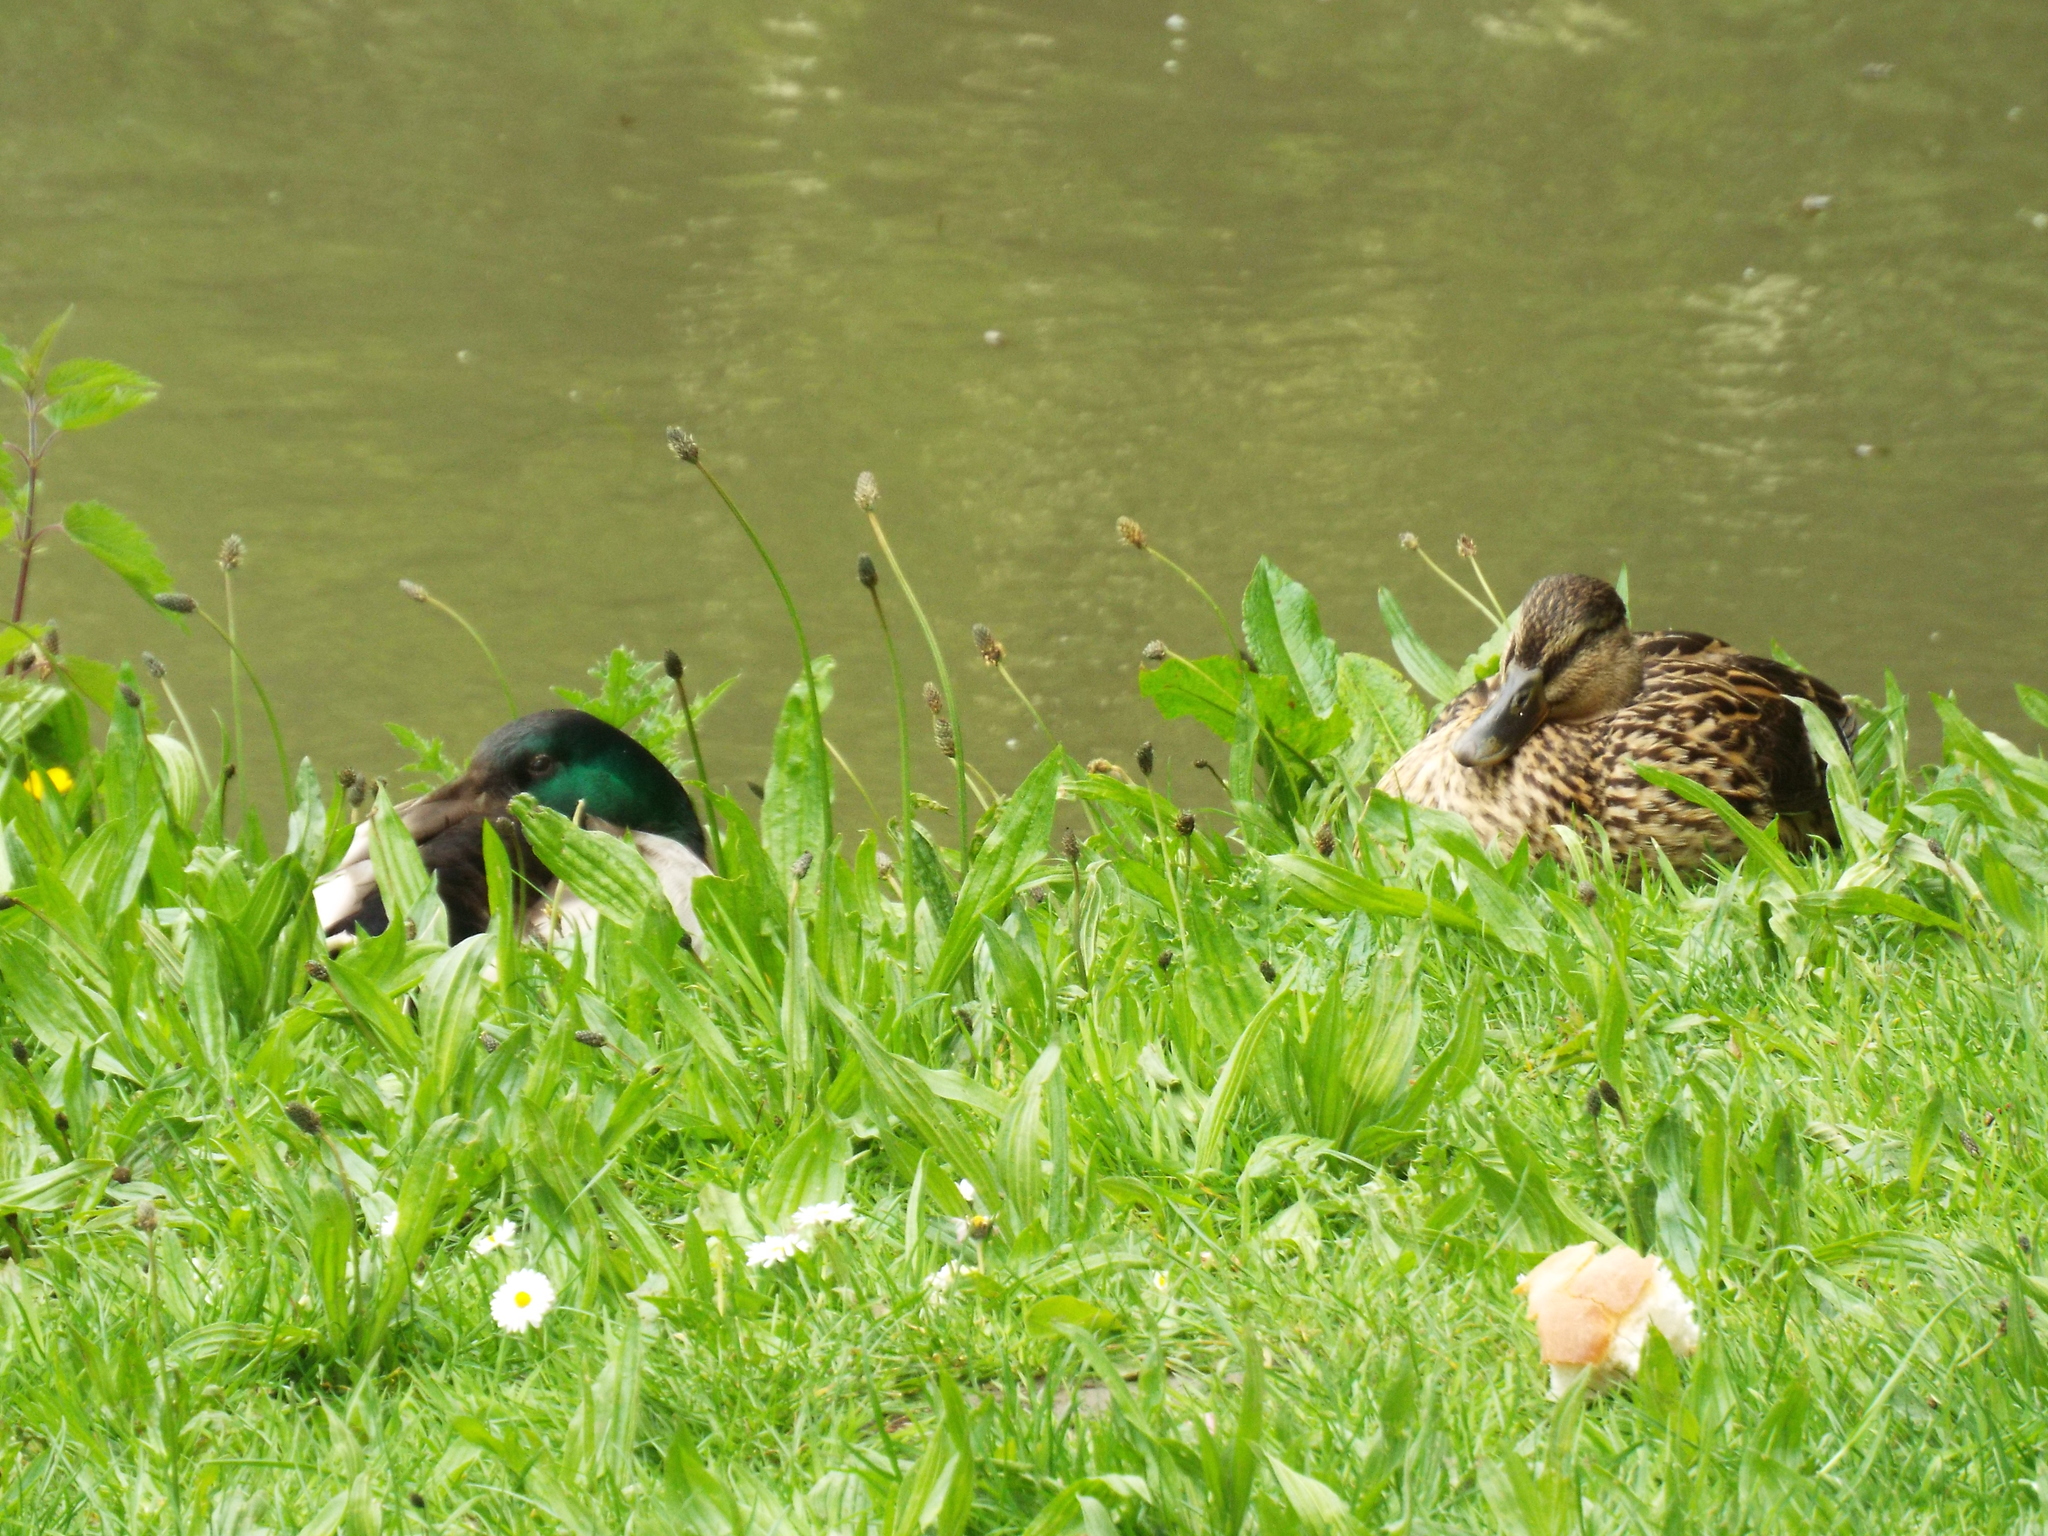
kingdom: Animalia
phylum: Chordata
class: Aves
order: Anseriformes
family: Anatidae
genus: Anas
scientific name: Anas platyrhynchos
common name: Mallard
